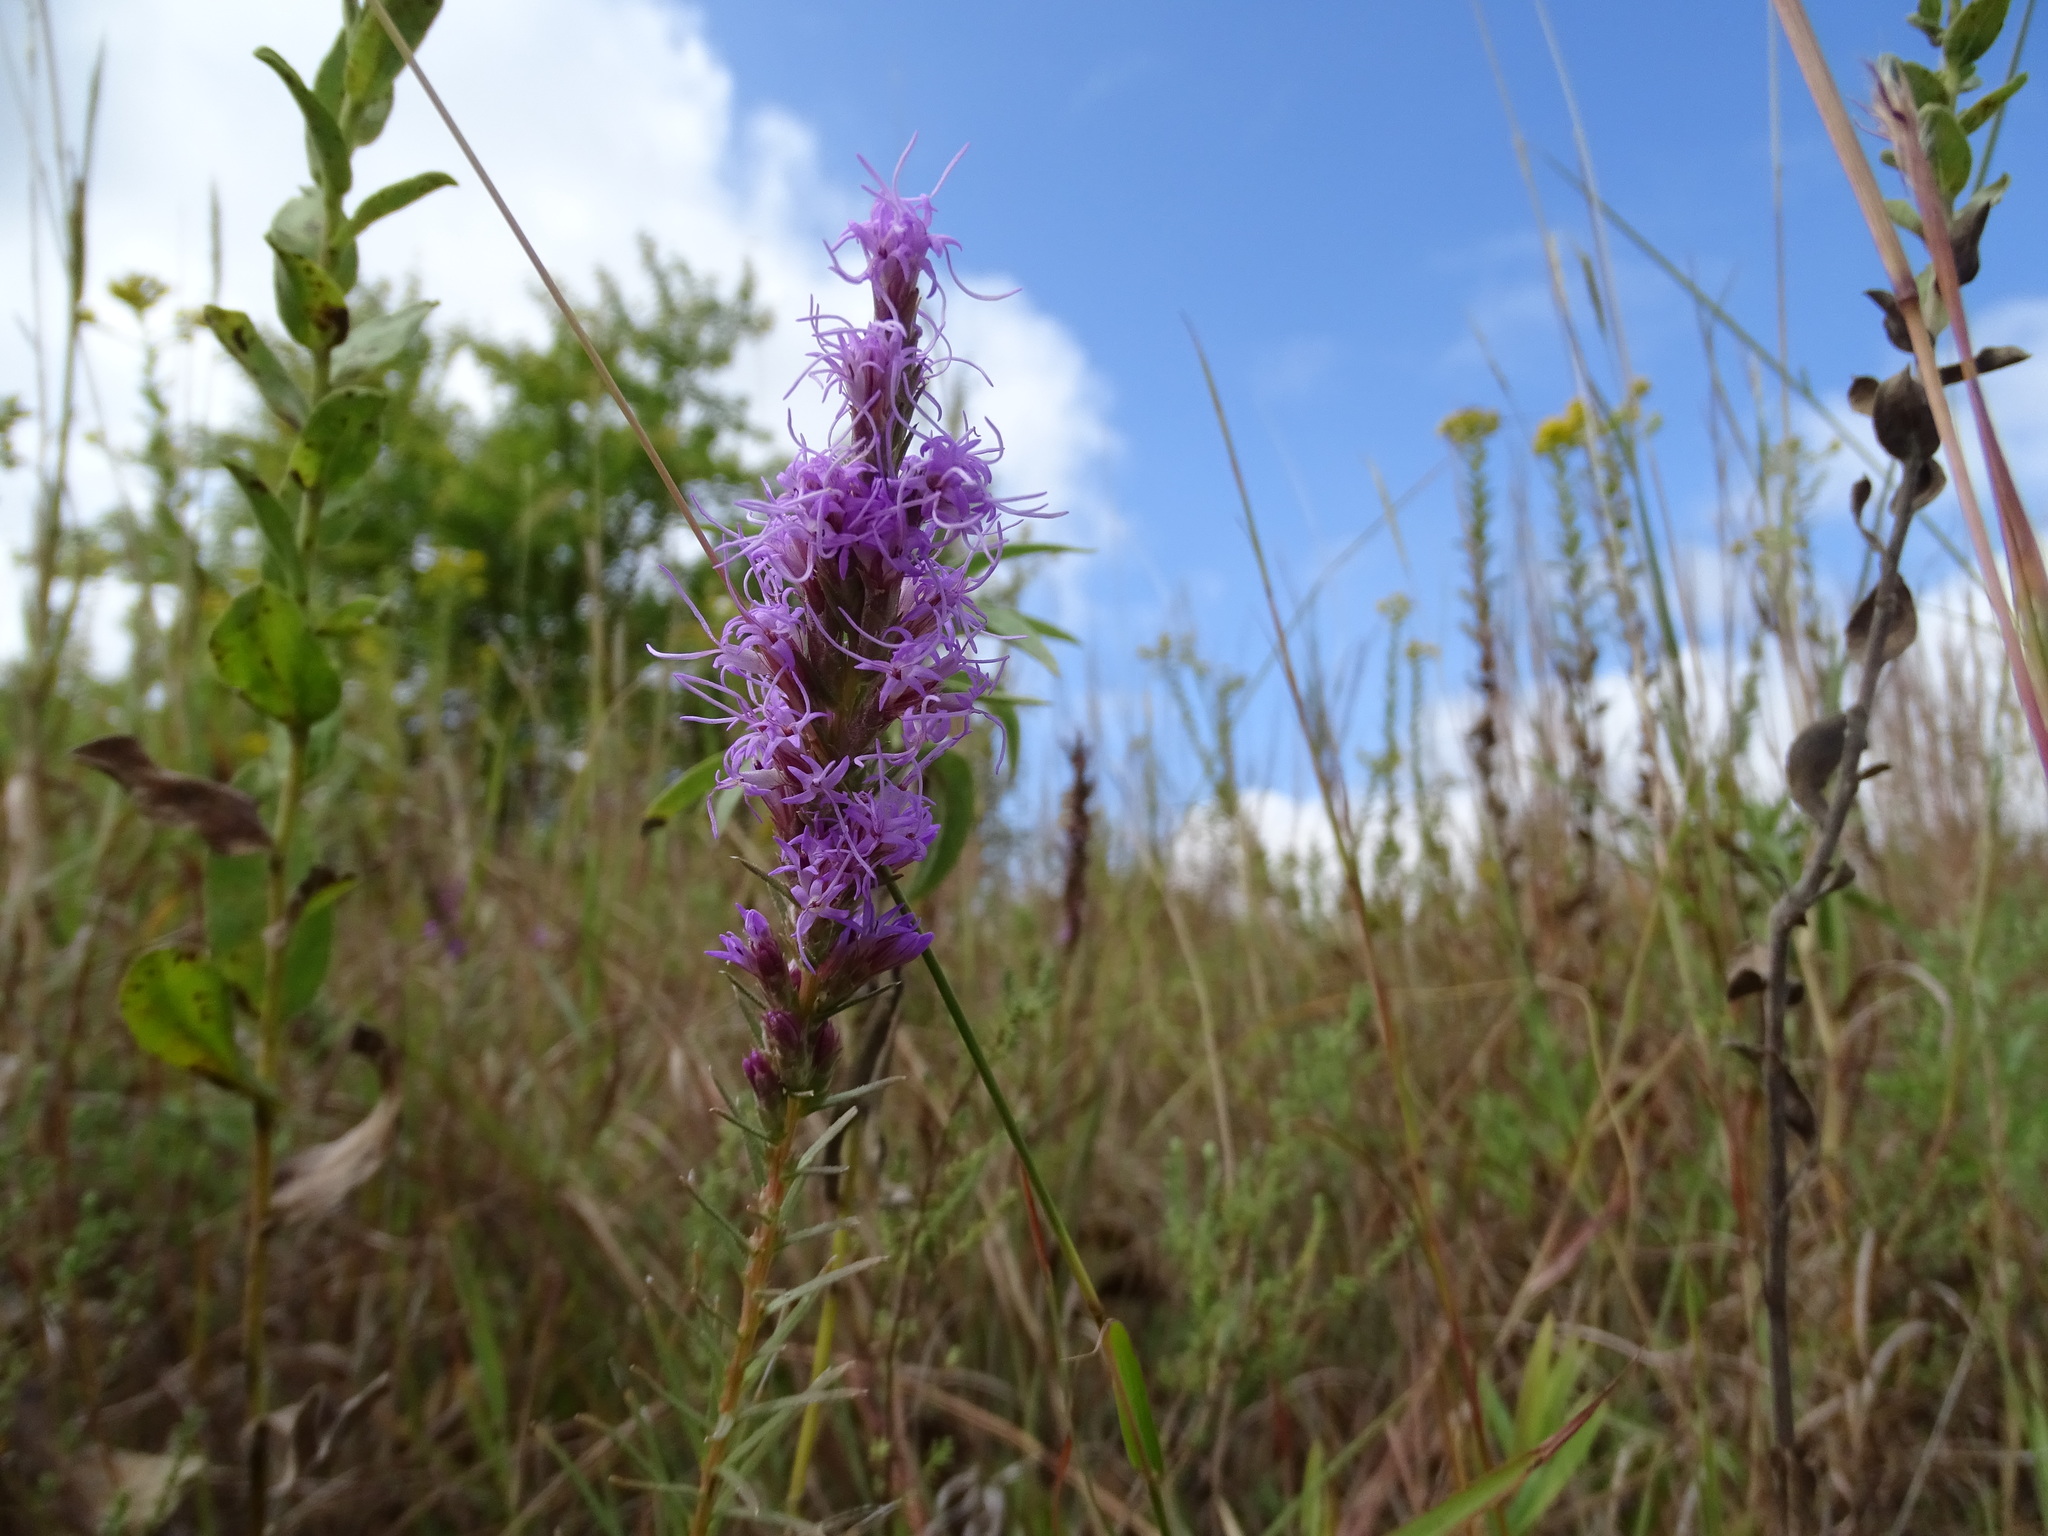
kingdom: Plantae
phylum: Tracheophyta
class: Magnoliopsida
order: Asterales
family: Asteraceae
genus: Liatris
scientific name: Liatris punctata
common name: Dotted gayfeather
